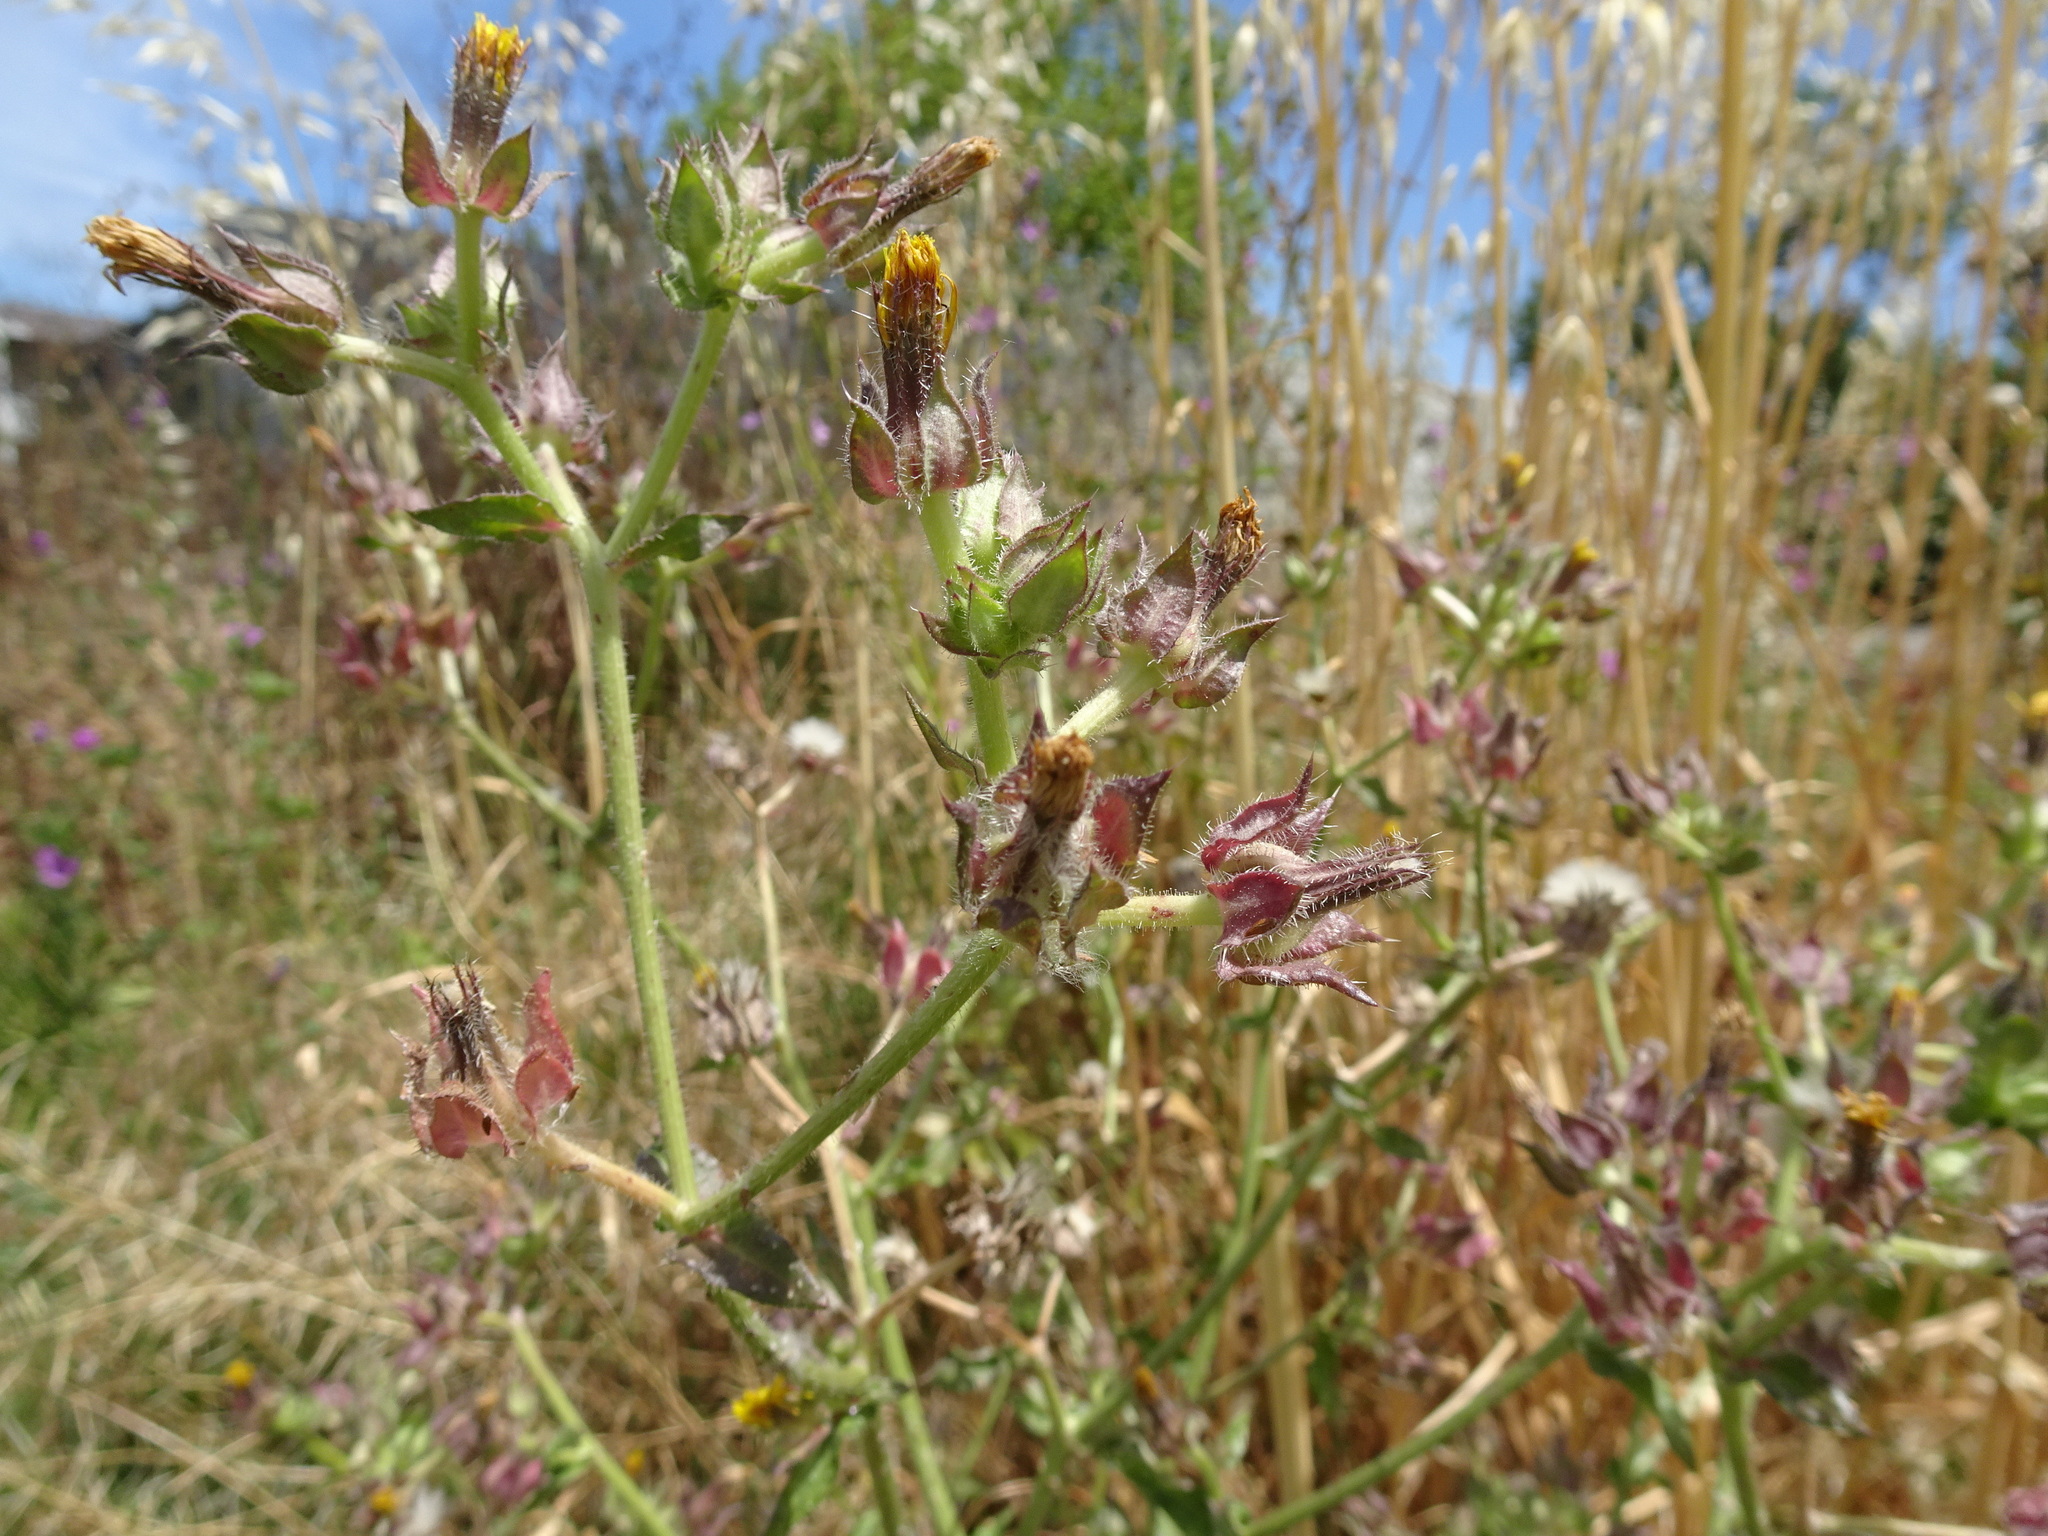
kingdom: Plantae
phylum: Tracheophyta
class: Magnoliopsida
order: Asterales
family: Asteraceae
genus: Helminthotheca
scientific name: Helminthotheca echioides
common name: Ox-tongue
